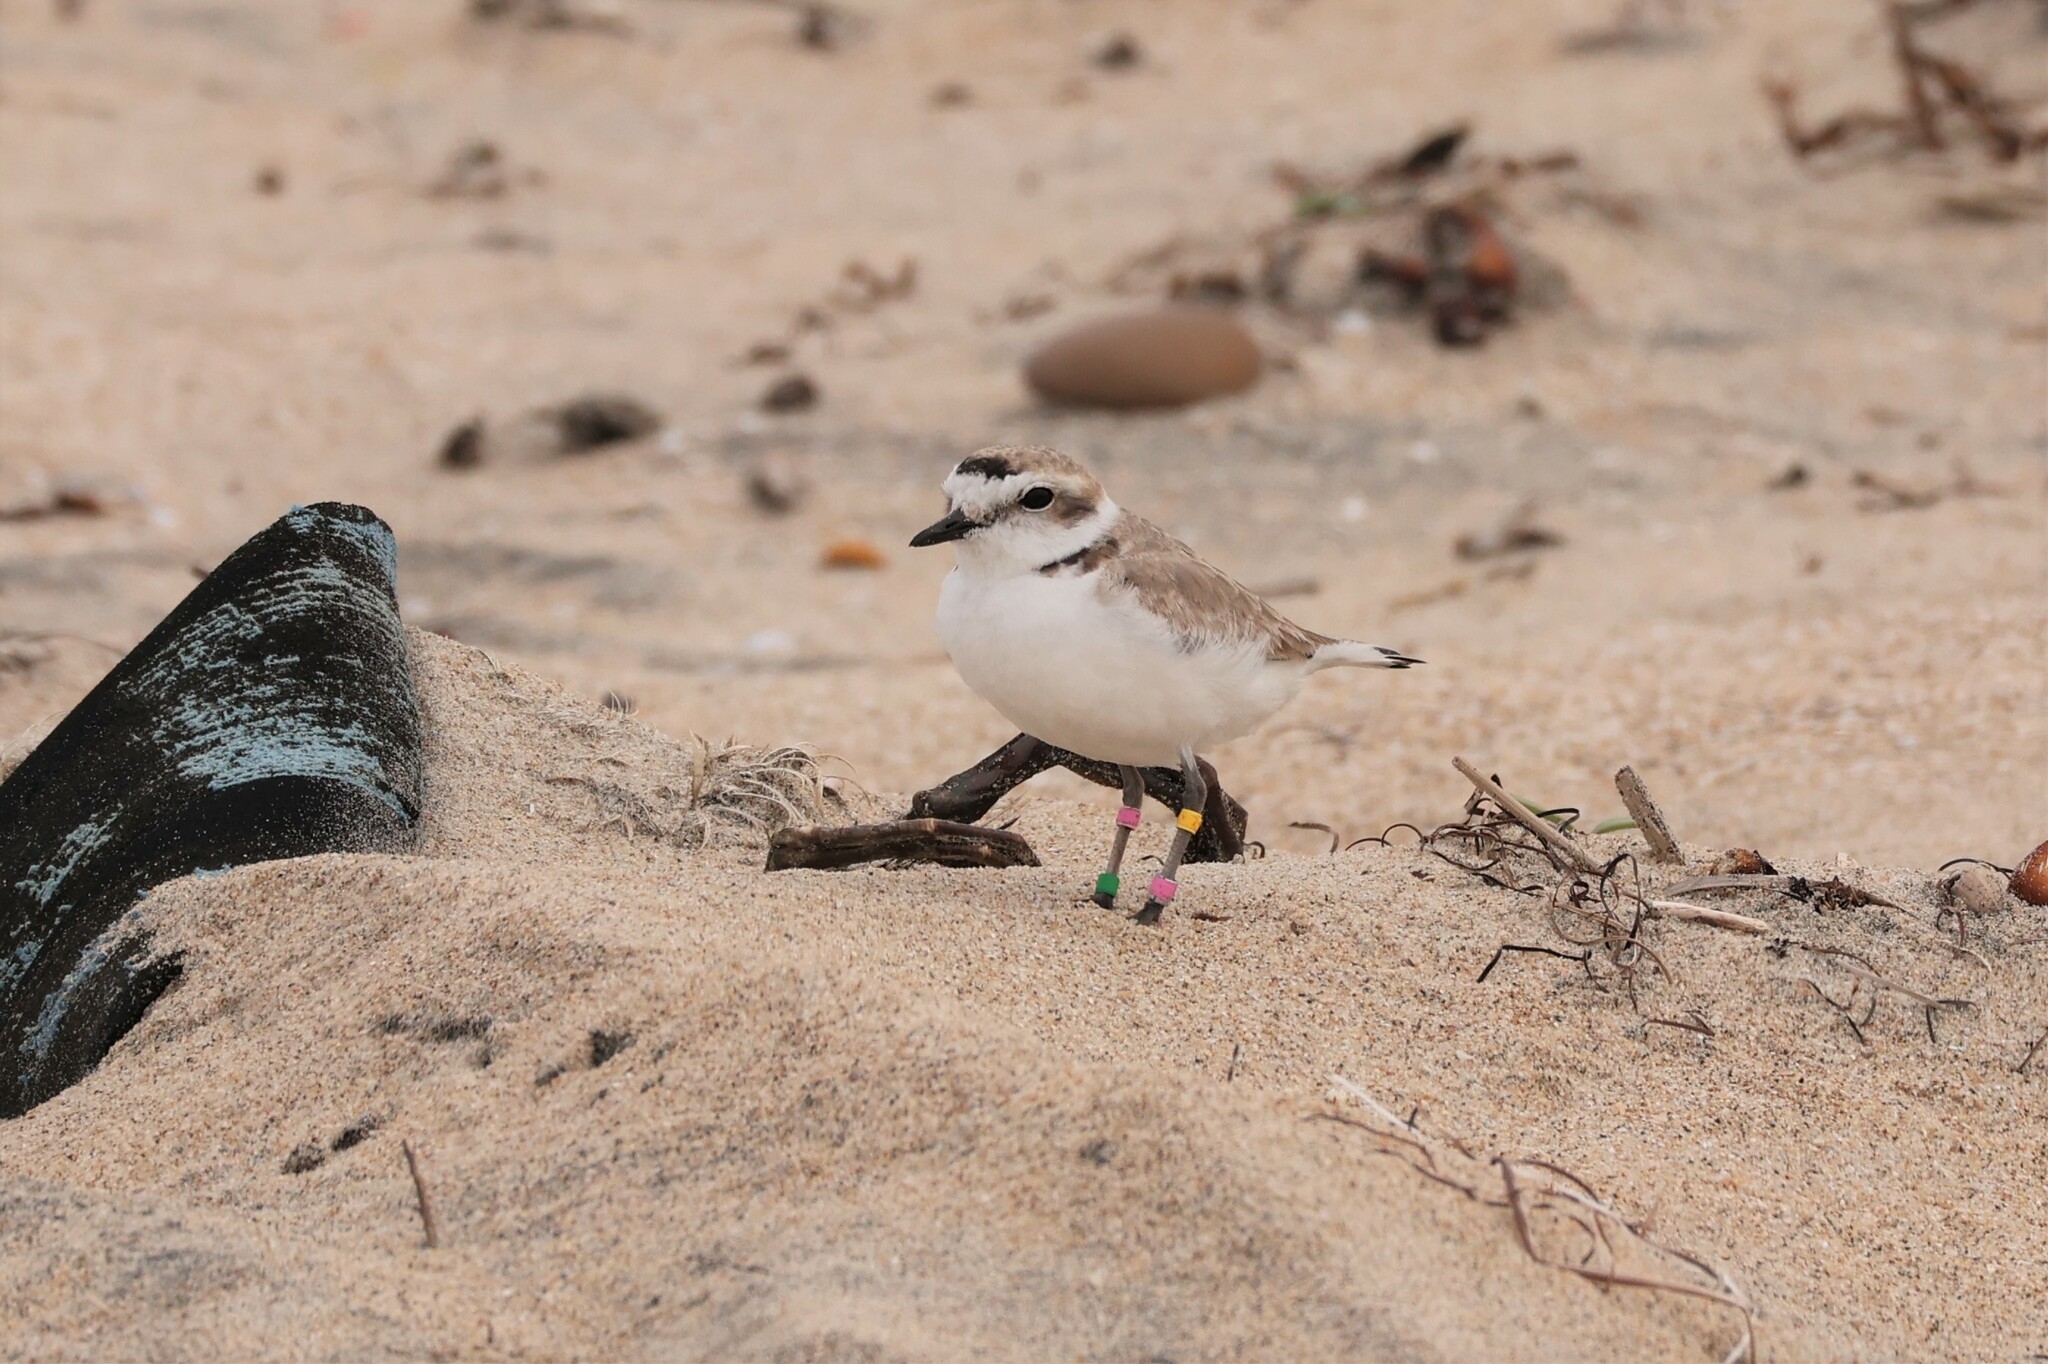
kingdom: Animalia
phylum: Chordata
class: Aves
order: Charadriiformes
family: Charadriidae
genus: Anarhynchus
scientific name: Anarhynchus
